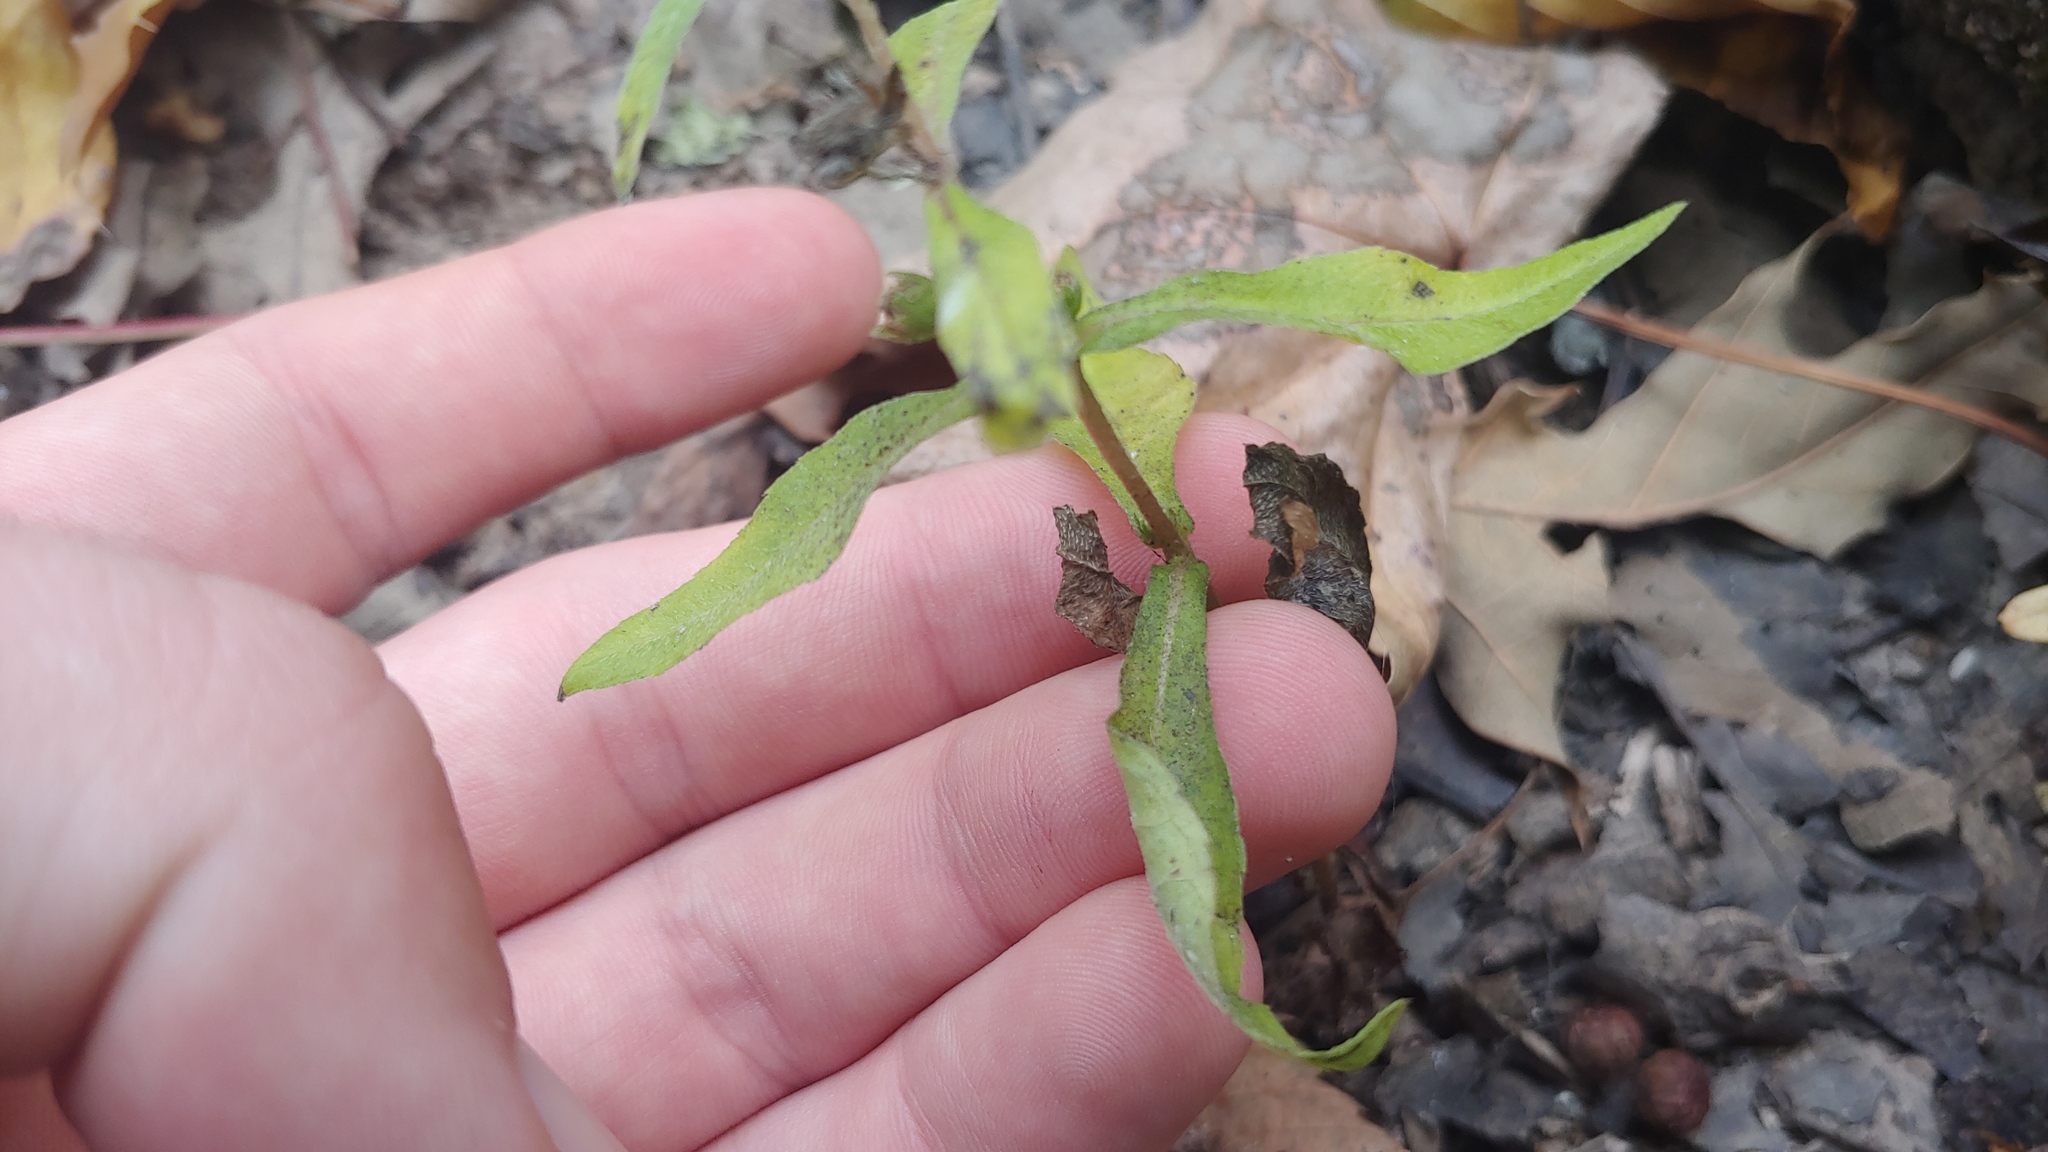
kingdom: Plantae
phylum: Tracheophyta
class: Magnoliopsida
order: Asterales
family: Asteraceae
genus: Eclipta
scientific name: Eclipta prostrata
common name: False daisy
